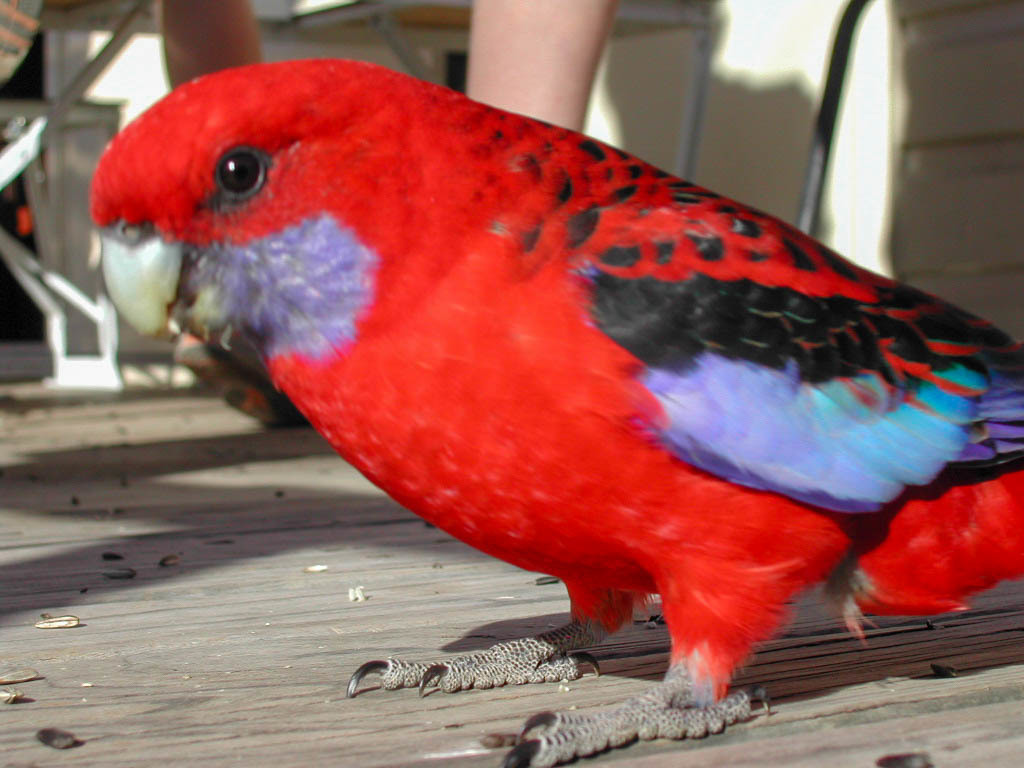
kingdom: Animalia
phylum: Chordata
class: Aves
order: Psittaciformes
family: Psittacidae
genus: Platycercus
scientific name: Platycercus elegans
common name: Crimson rosella
